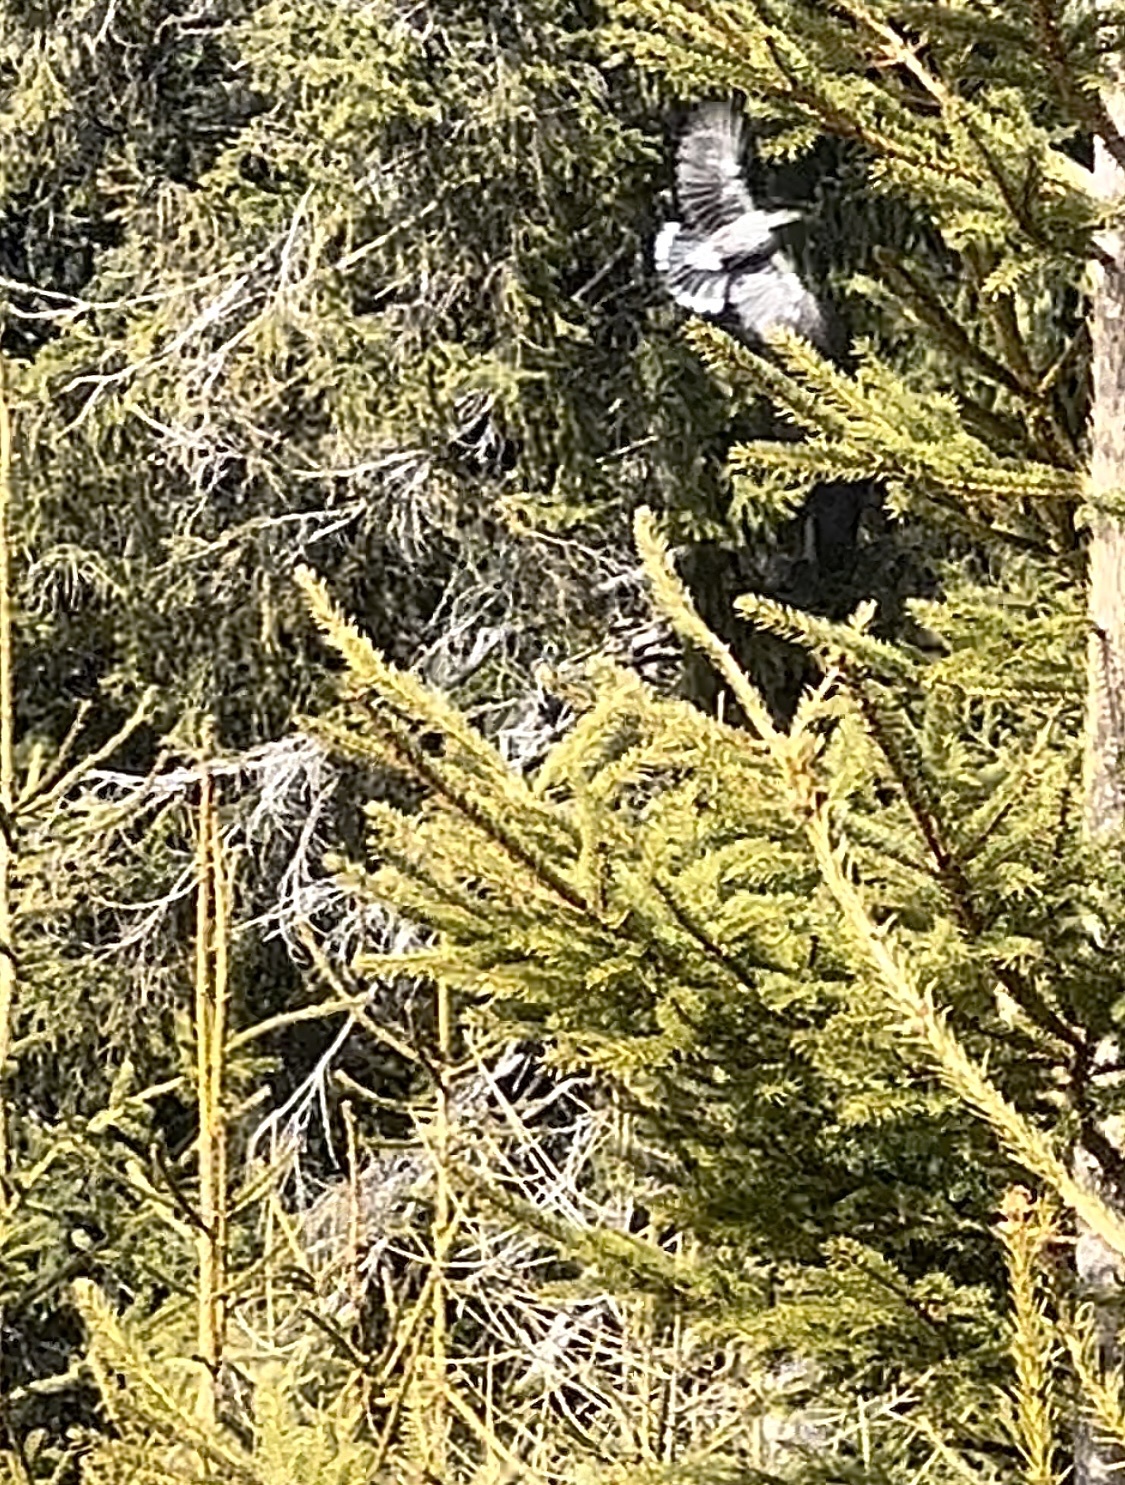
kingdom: Animalia
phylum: Chordata
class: Aves
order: Passeriformes
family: Corvidae
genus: Nucifraga
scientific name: Nucifraga caryocatactes
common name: Spotted nutcracker
